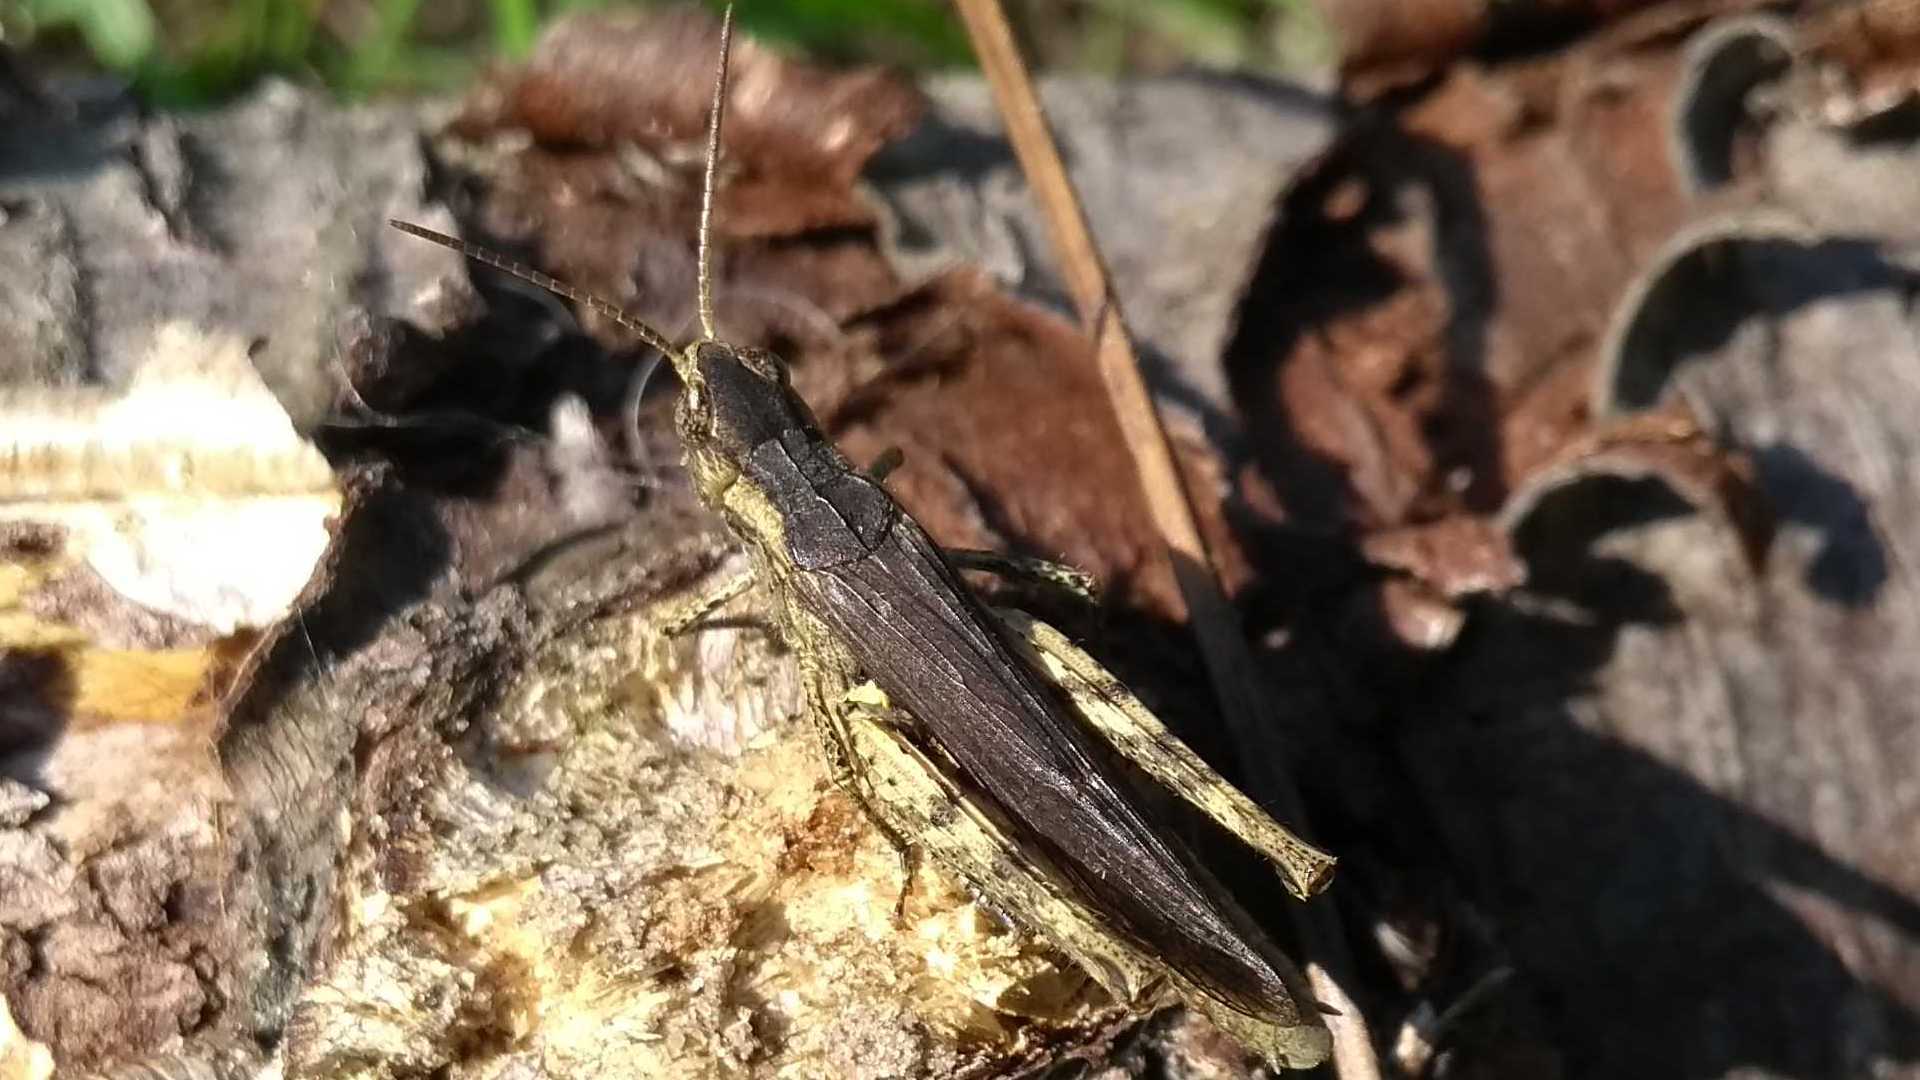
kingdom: Animalia
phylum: Arthropoda
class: Insecta
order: Orthoptera
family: Acrididae
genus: Chorthippus
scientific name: Chorthippus brunneus
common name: Field grasshopper
